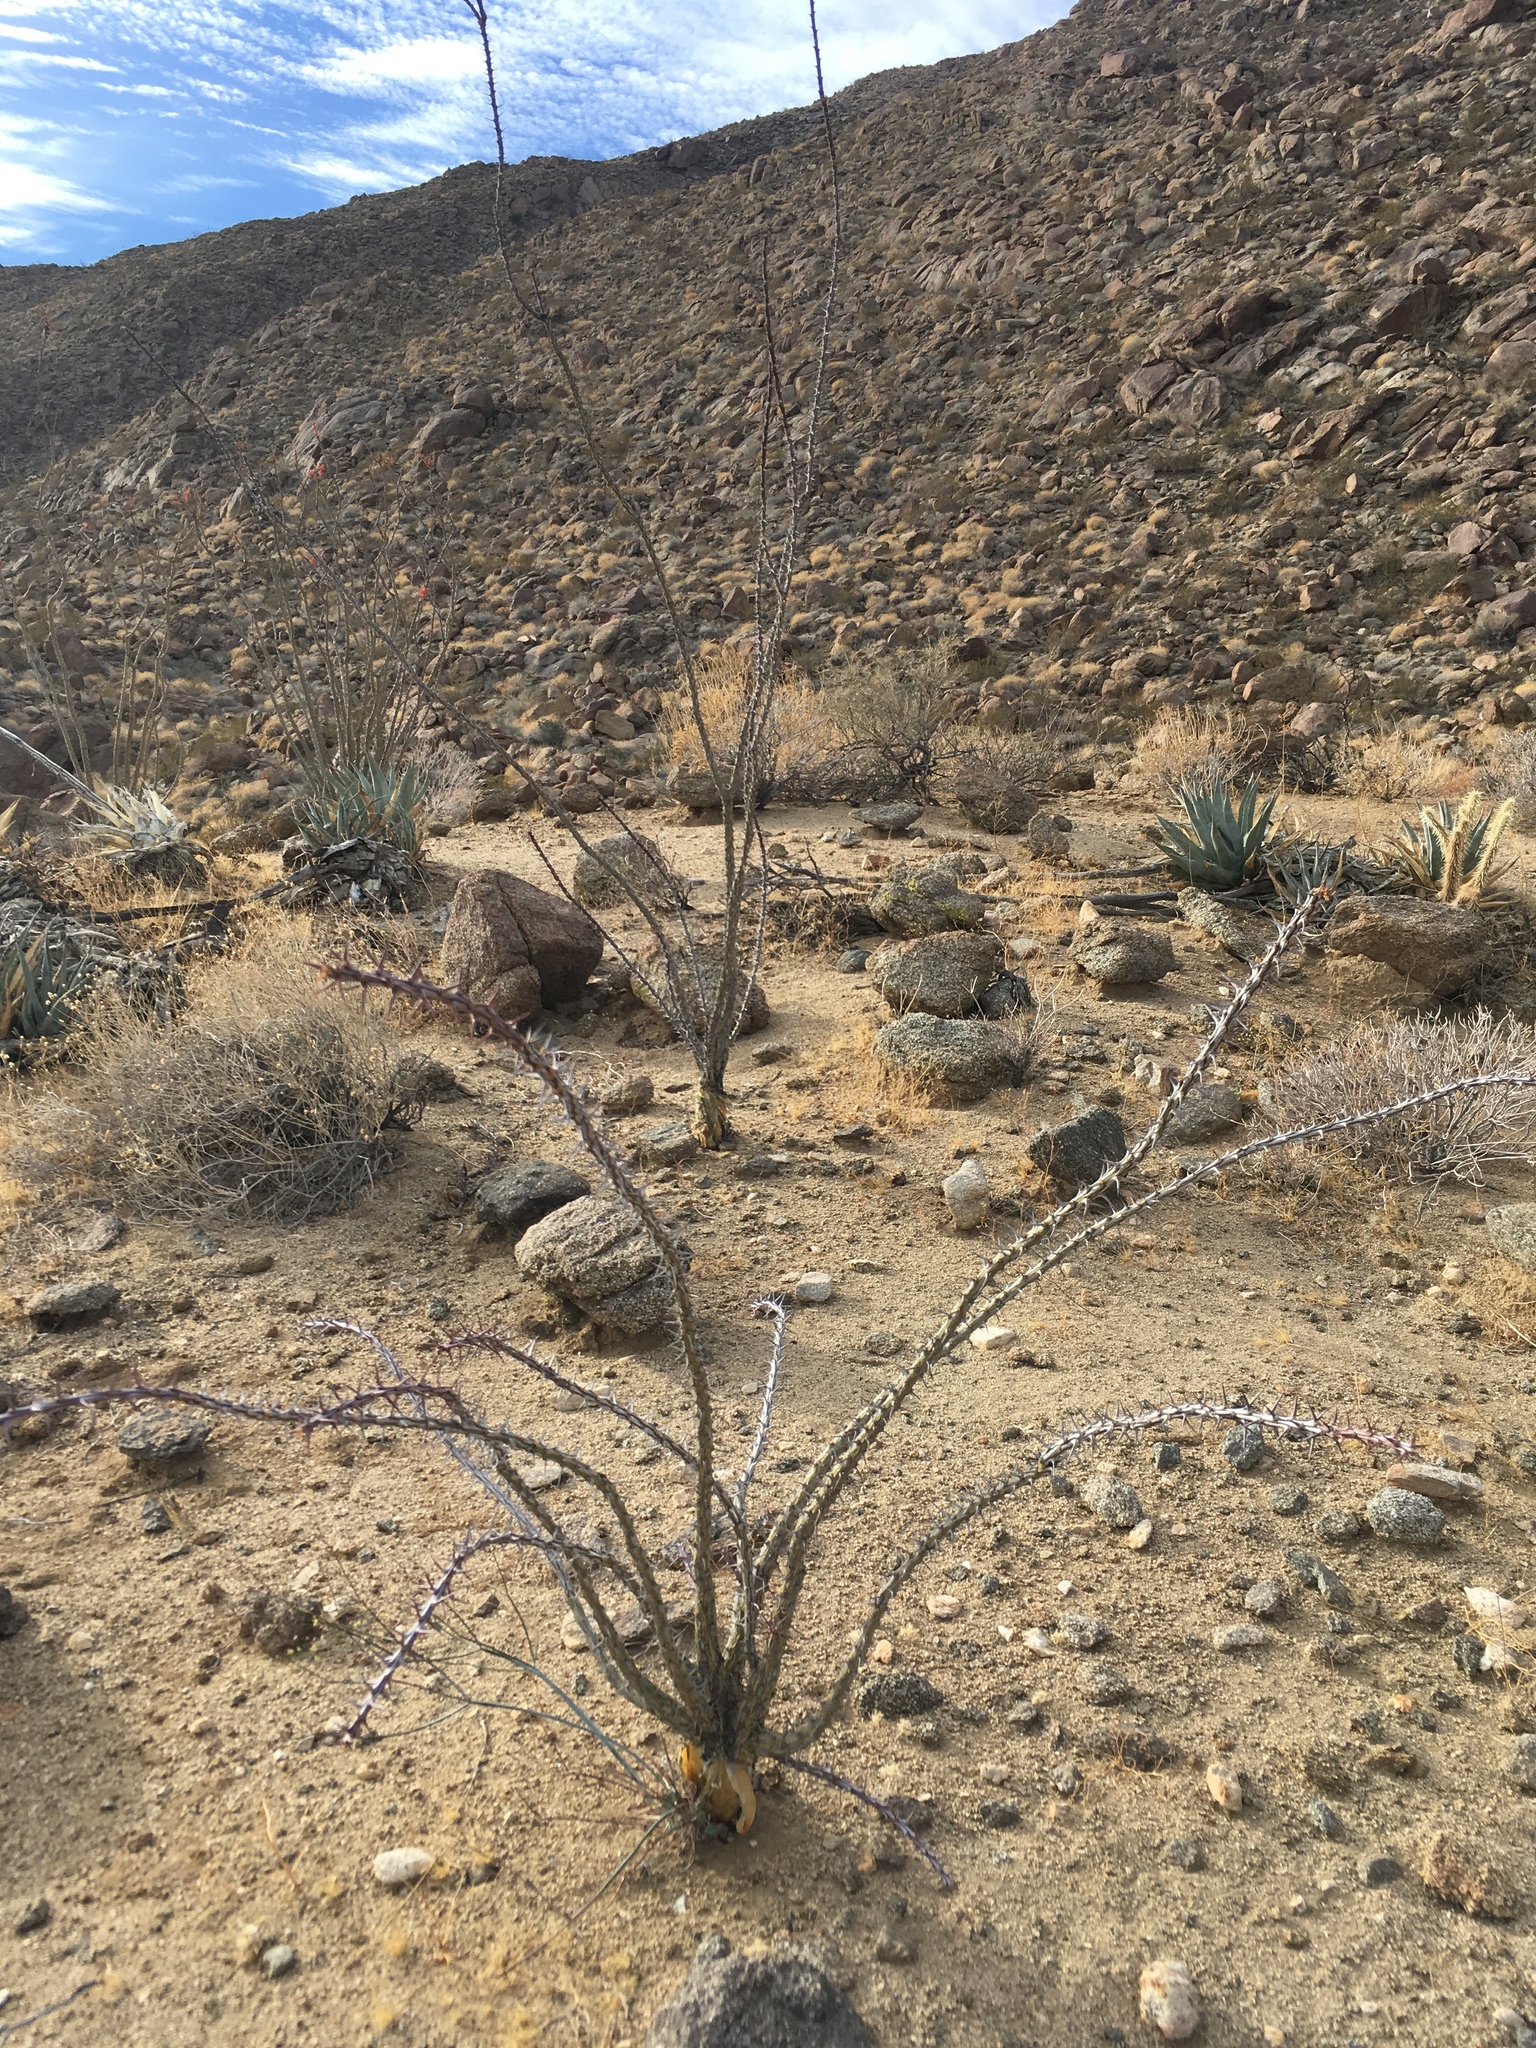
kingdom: Plantae
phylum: Tracheophyta
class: Magnoliopsida
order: Ericales
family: Fouquieriaceae
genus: Fouquieria
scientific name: Fouquieria splendens
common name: Vine-cactus
